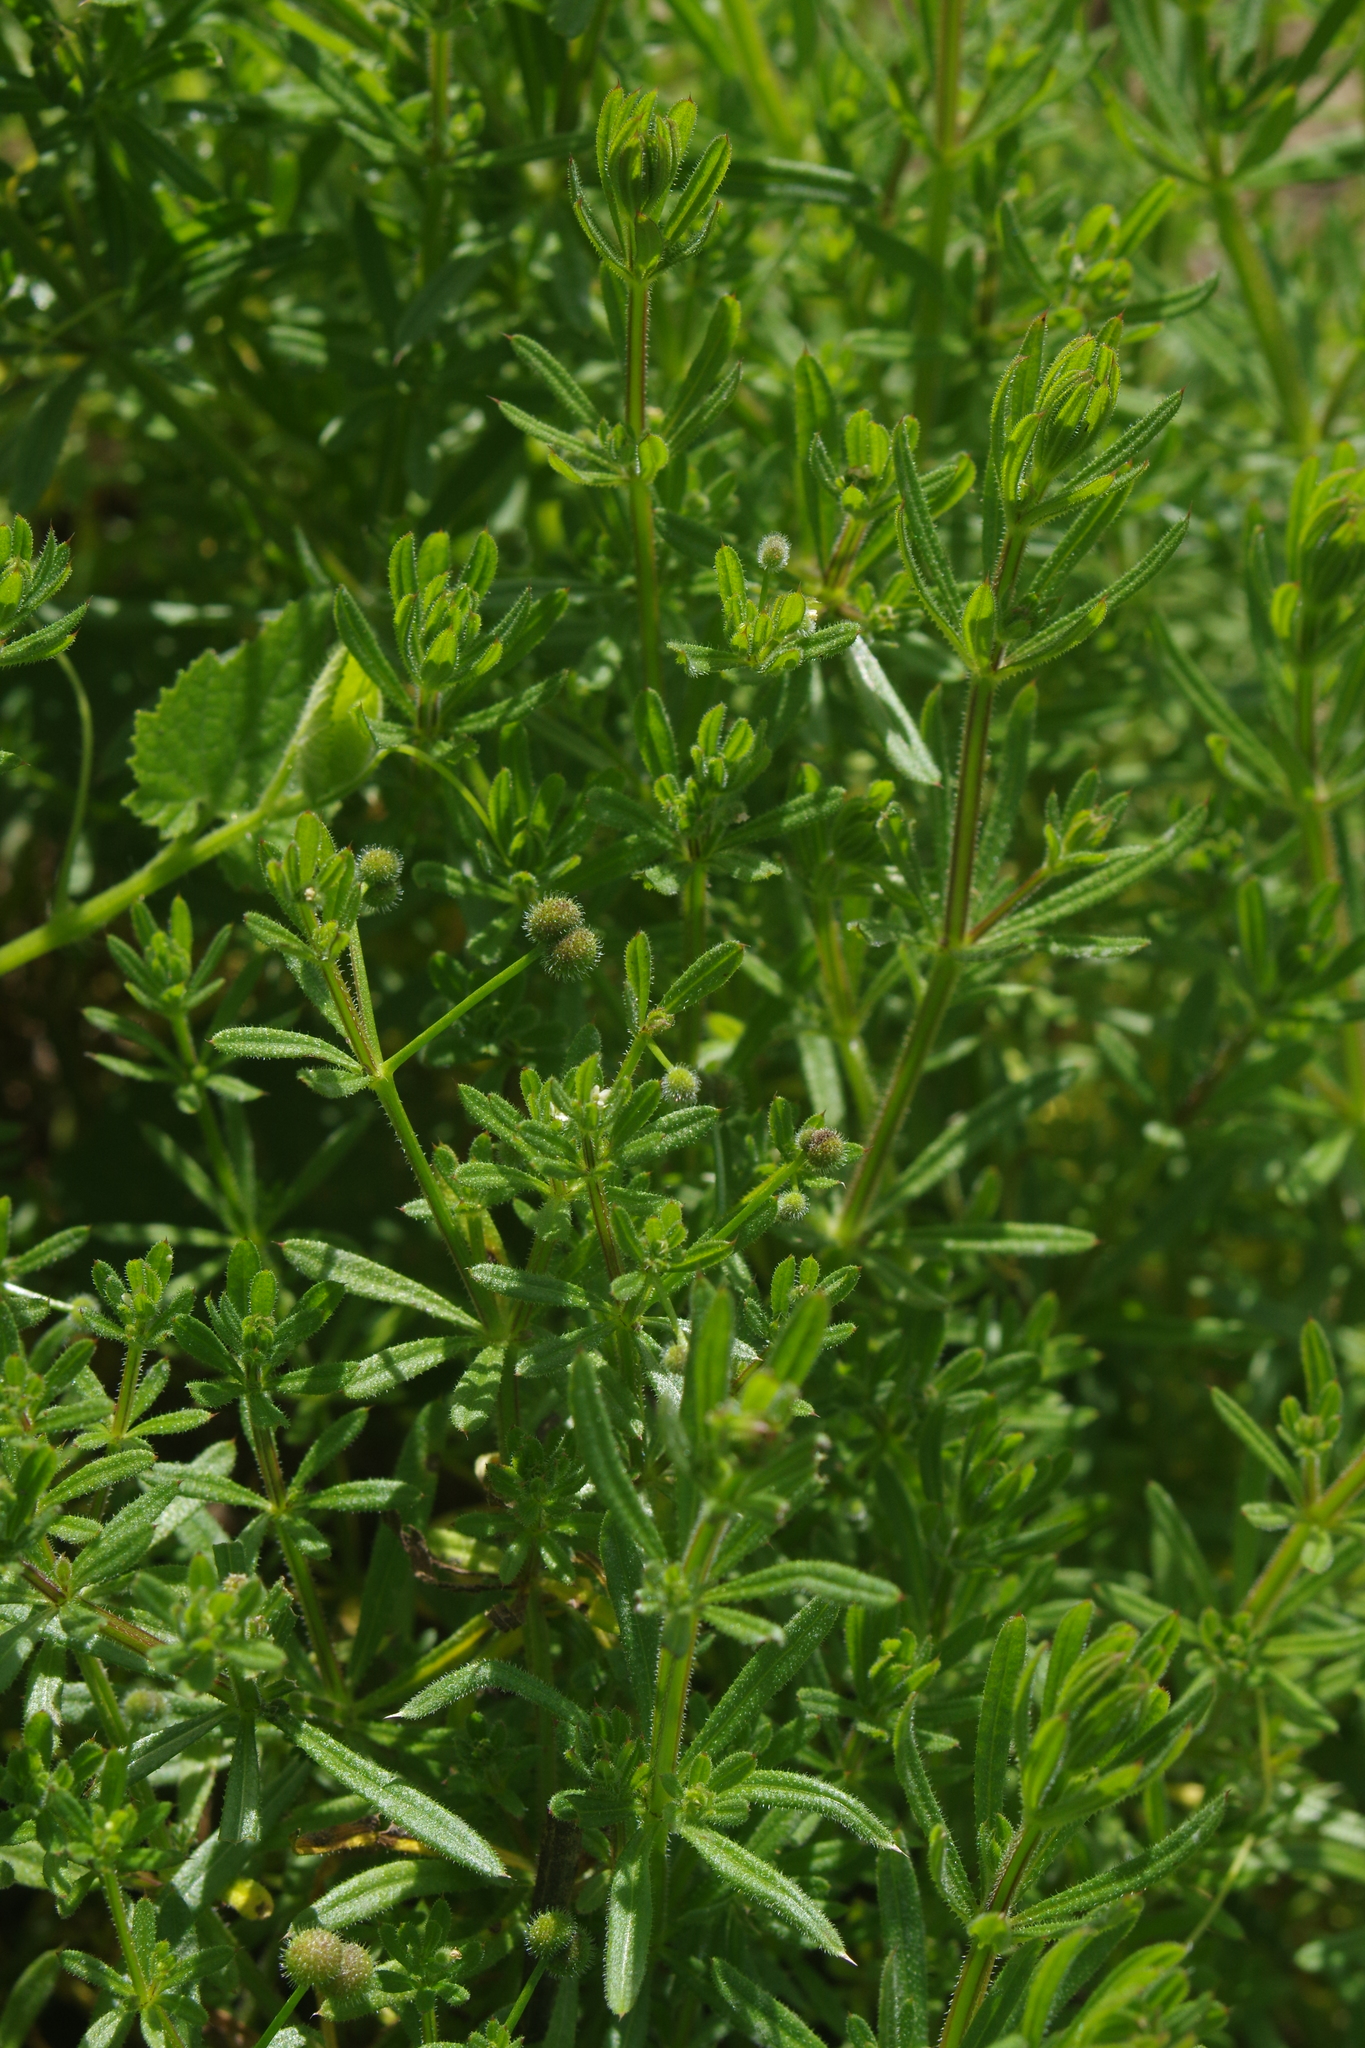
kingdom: Plantae
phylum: Tracheophyta
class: Magnoliopsida
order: Gentianales
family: Rubiaceae
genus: Galium
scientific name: Galium aparine
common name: Cleavers
